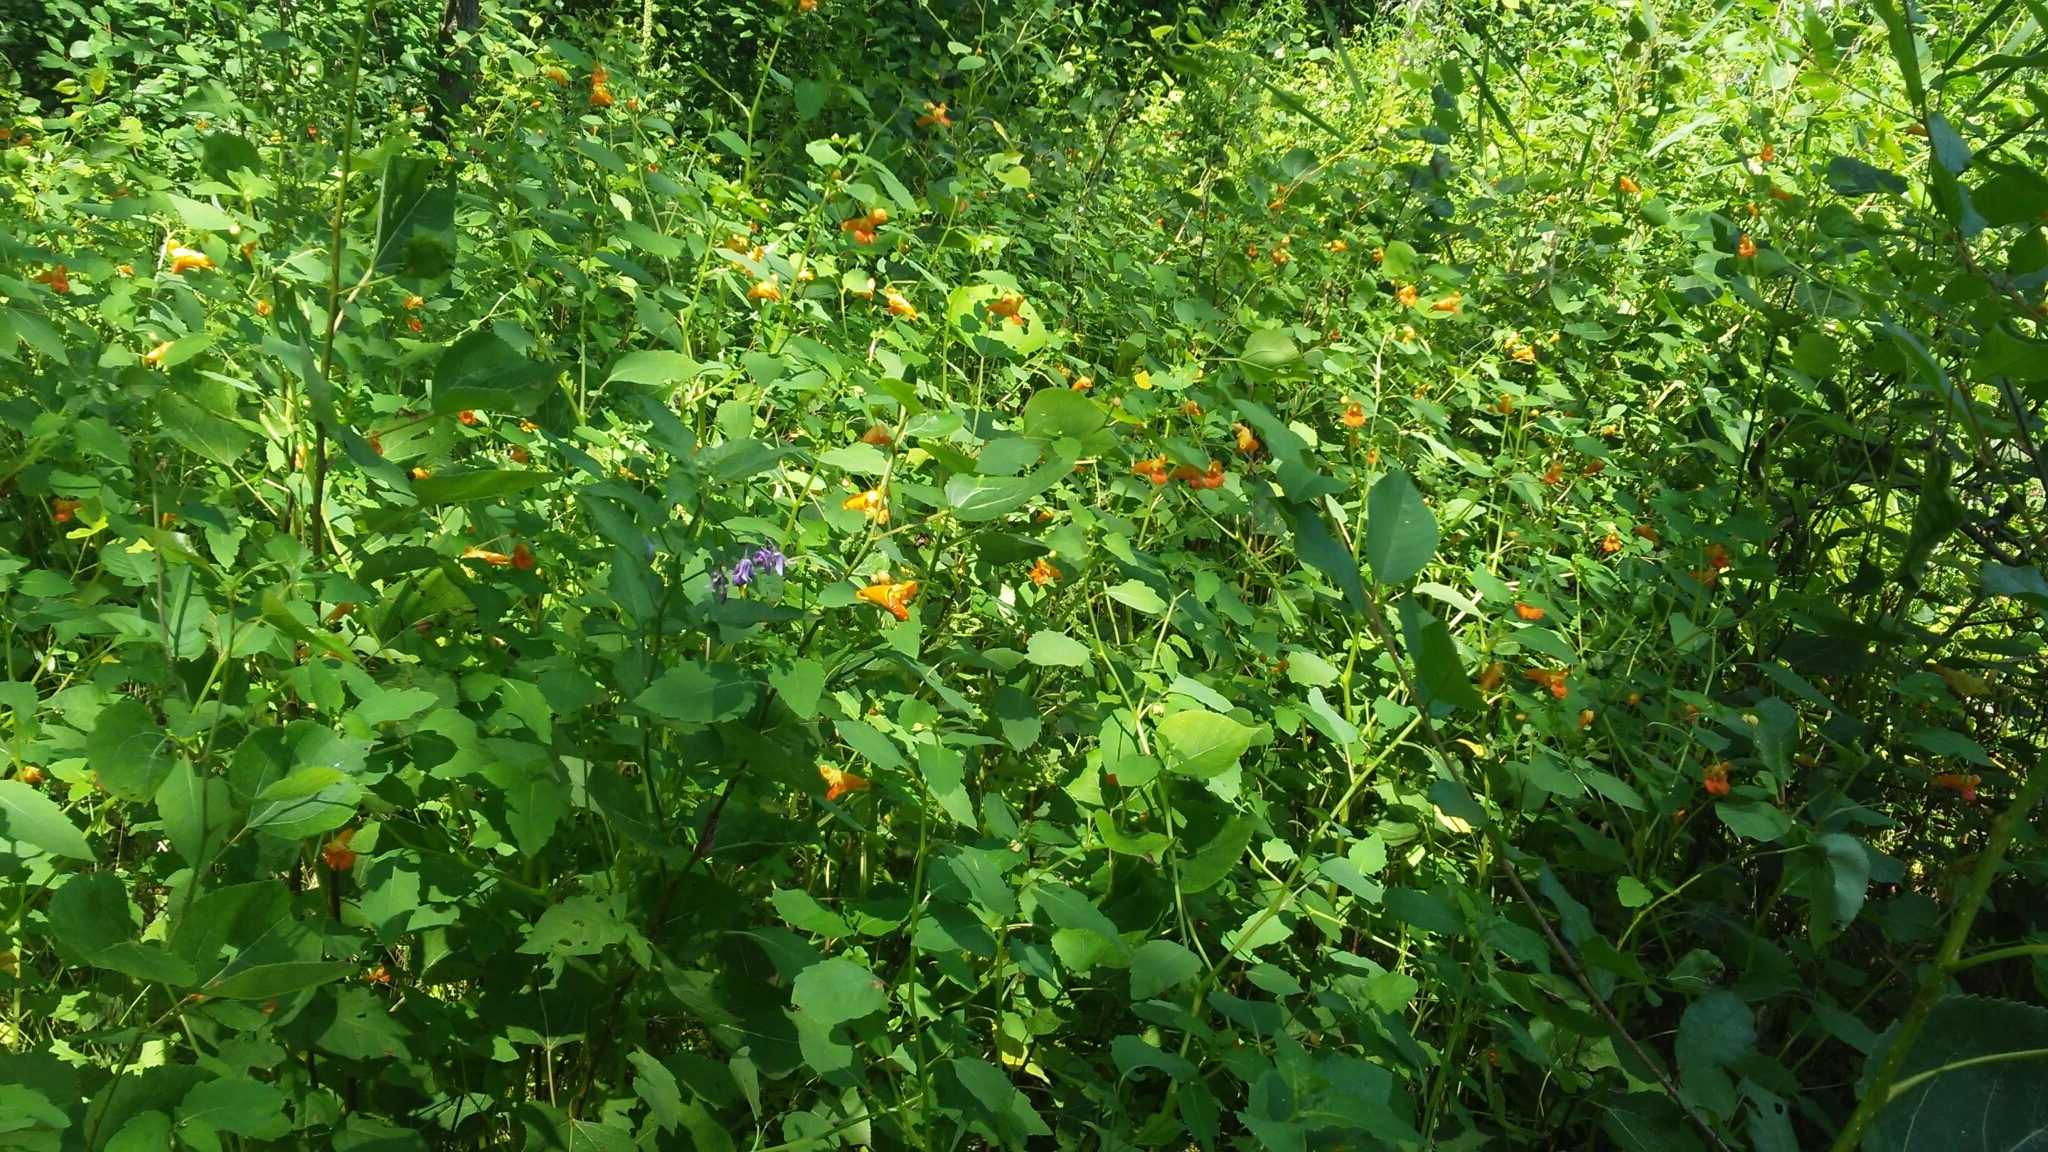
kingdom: Plantae
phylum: Tracheophyta
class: Magnoliopsida
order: Ericales
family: Balsaminaceae
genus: Impatiens
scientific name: Impatiens capensis
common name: Orange balsam
